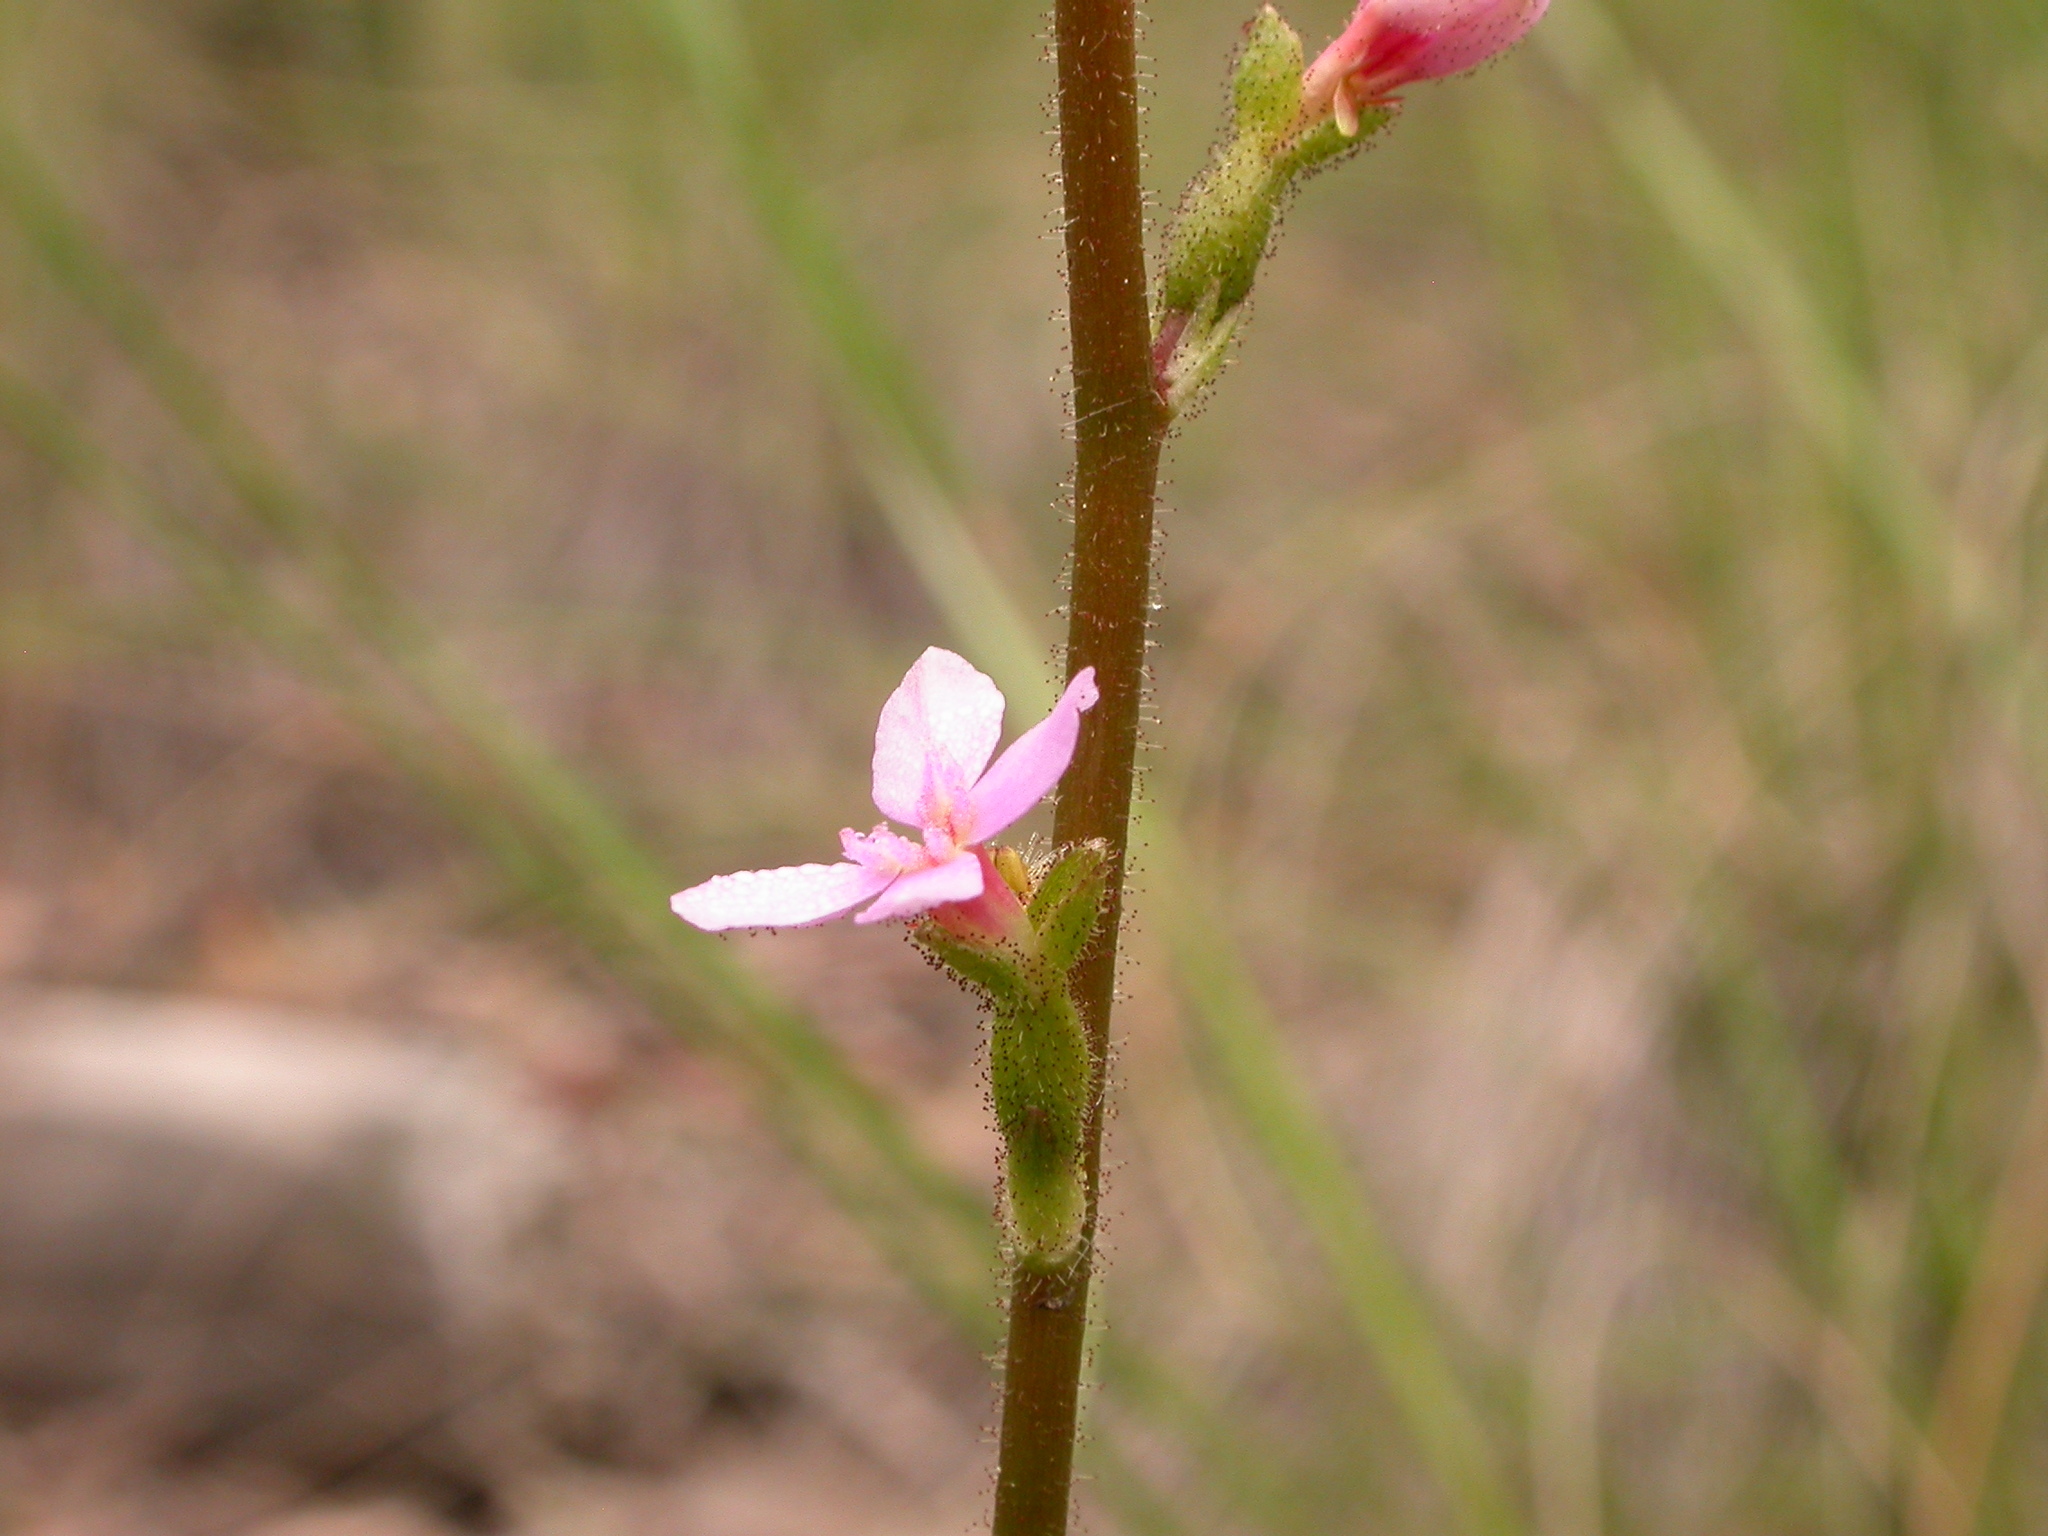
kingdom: Plantae
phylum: Tracheophyta
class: Magnoliopsida
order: Asterales
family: Stylidiaceae
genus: Stylidium
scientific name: Stylidium graminifolium
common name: Grass triggerplant
